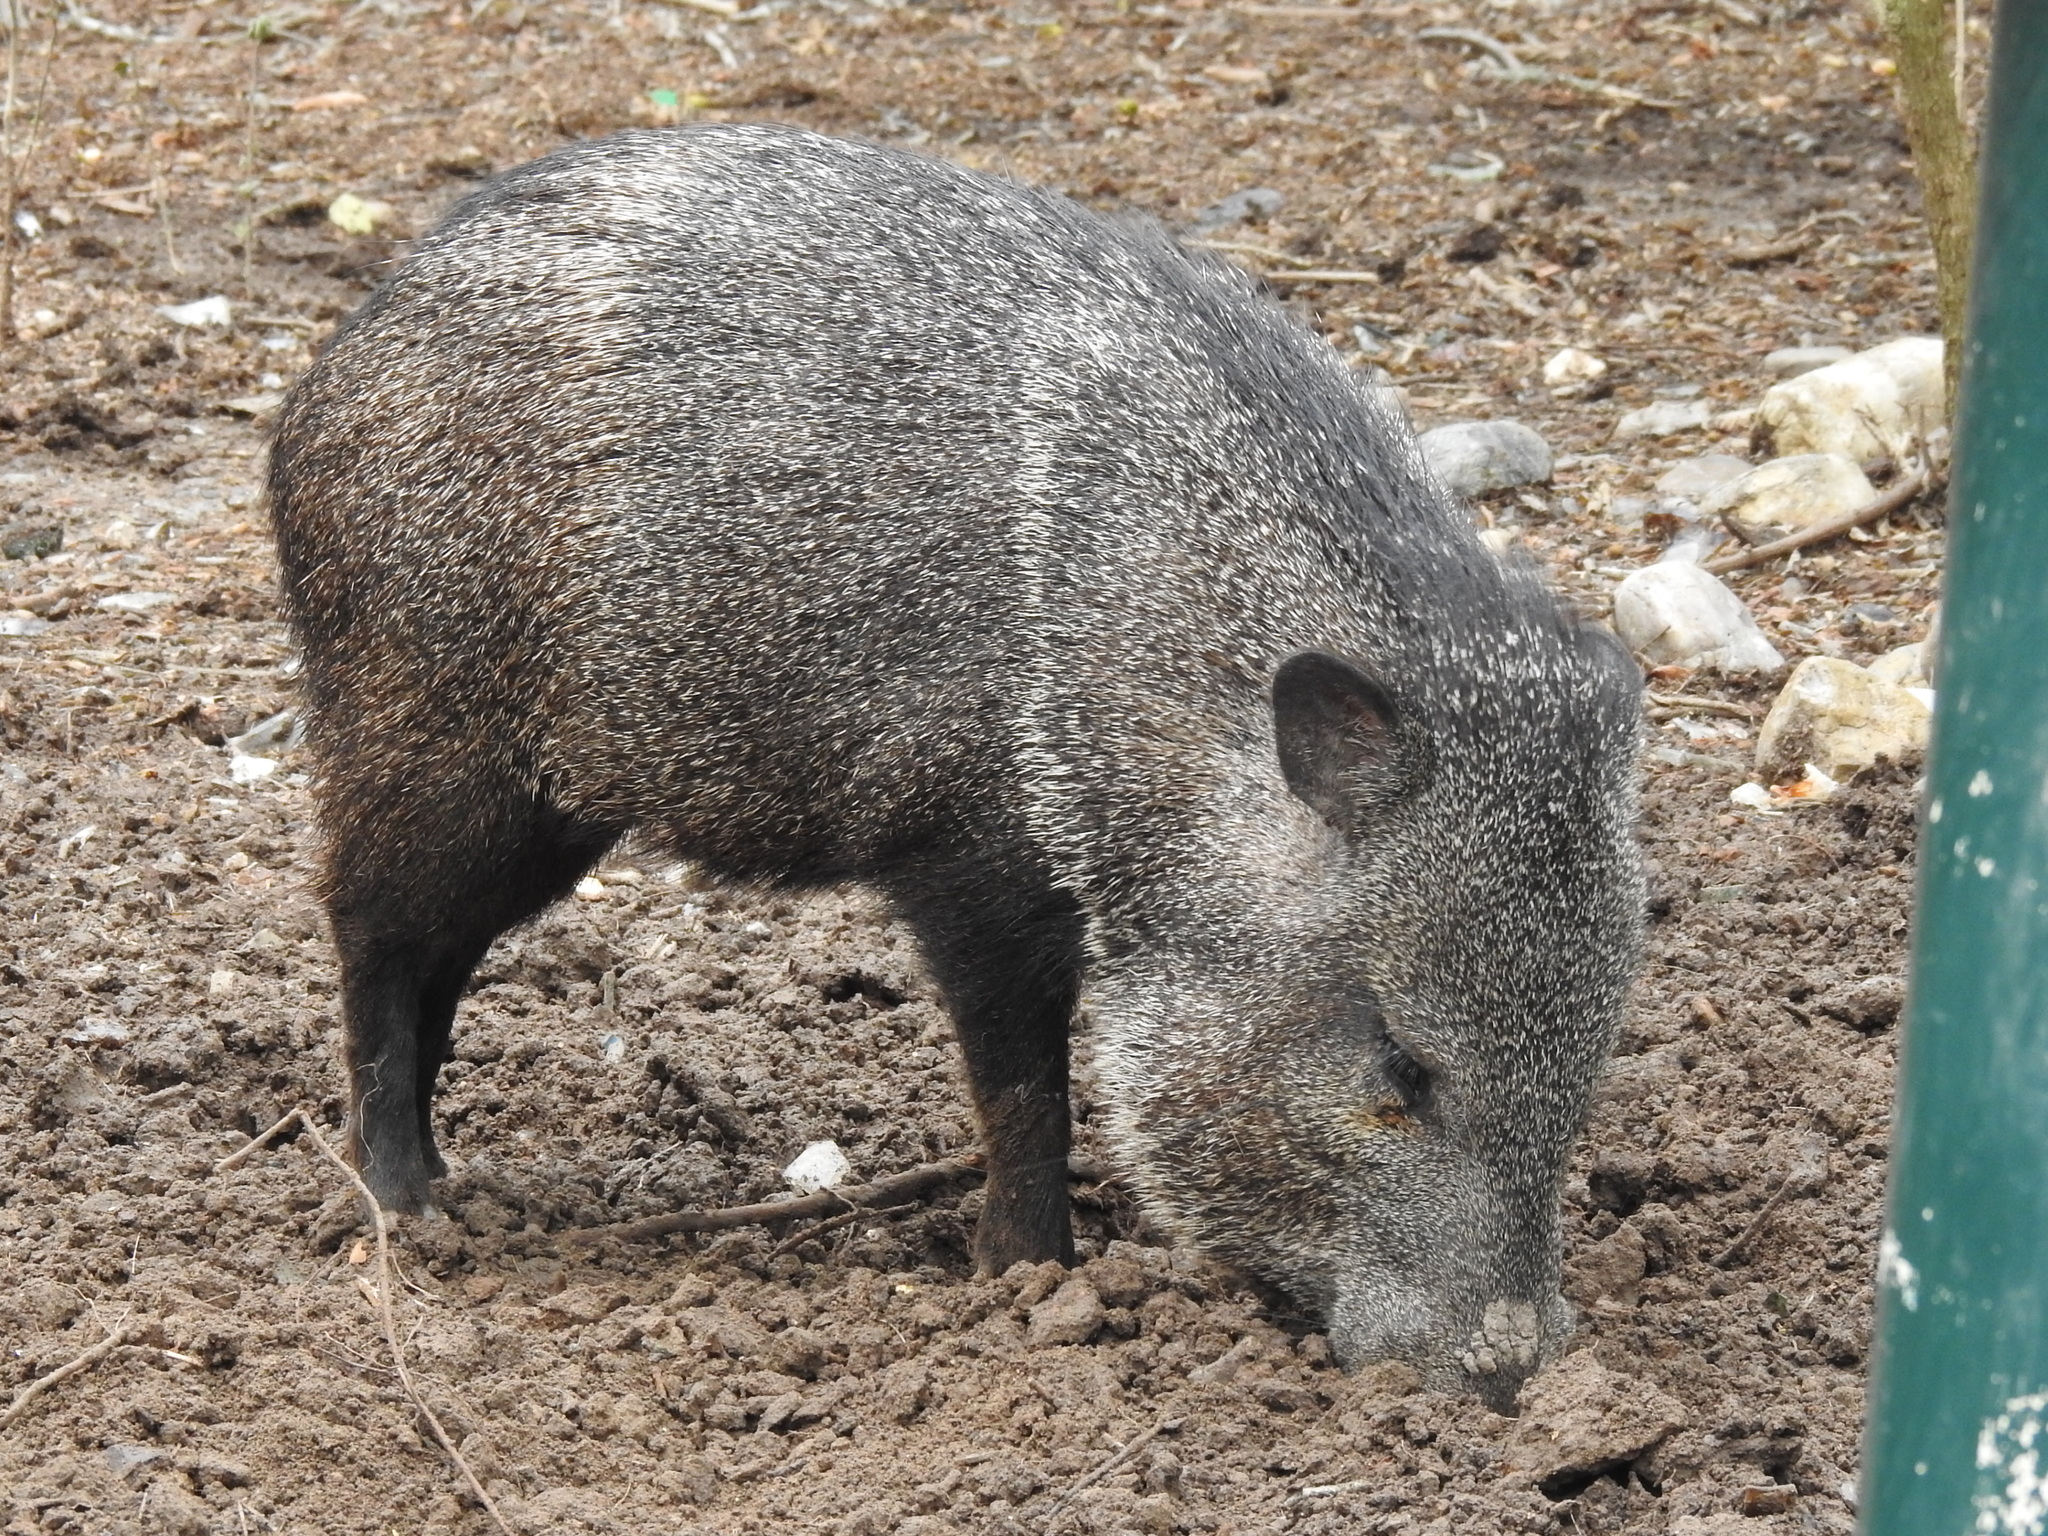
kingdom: Animalia
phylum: Chordata
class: Mammalia
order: Artiodactyla
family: Tayassuidae
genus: Pecari
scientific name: Pecari tajacu
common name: Collared peccary
